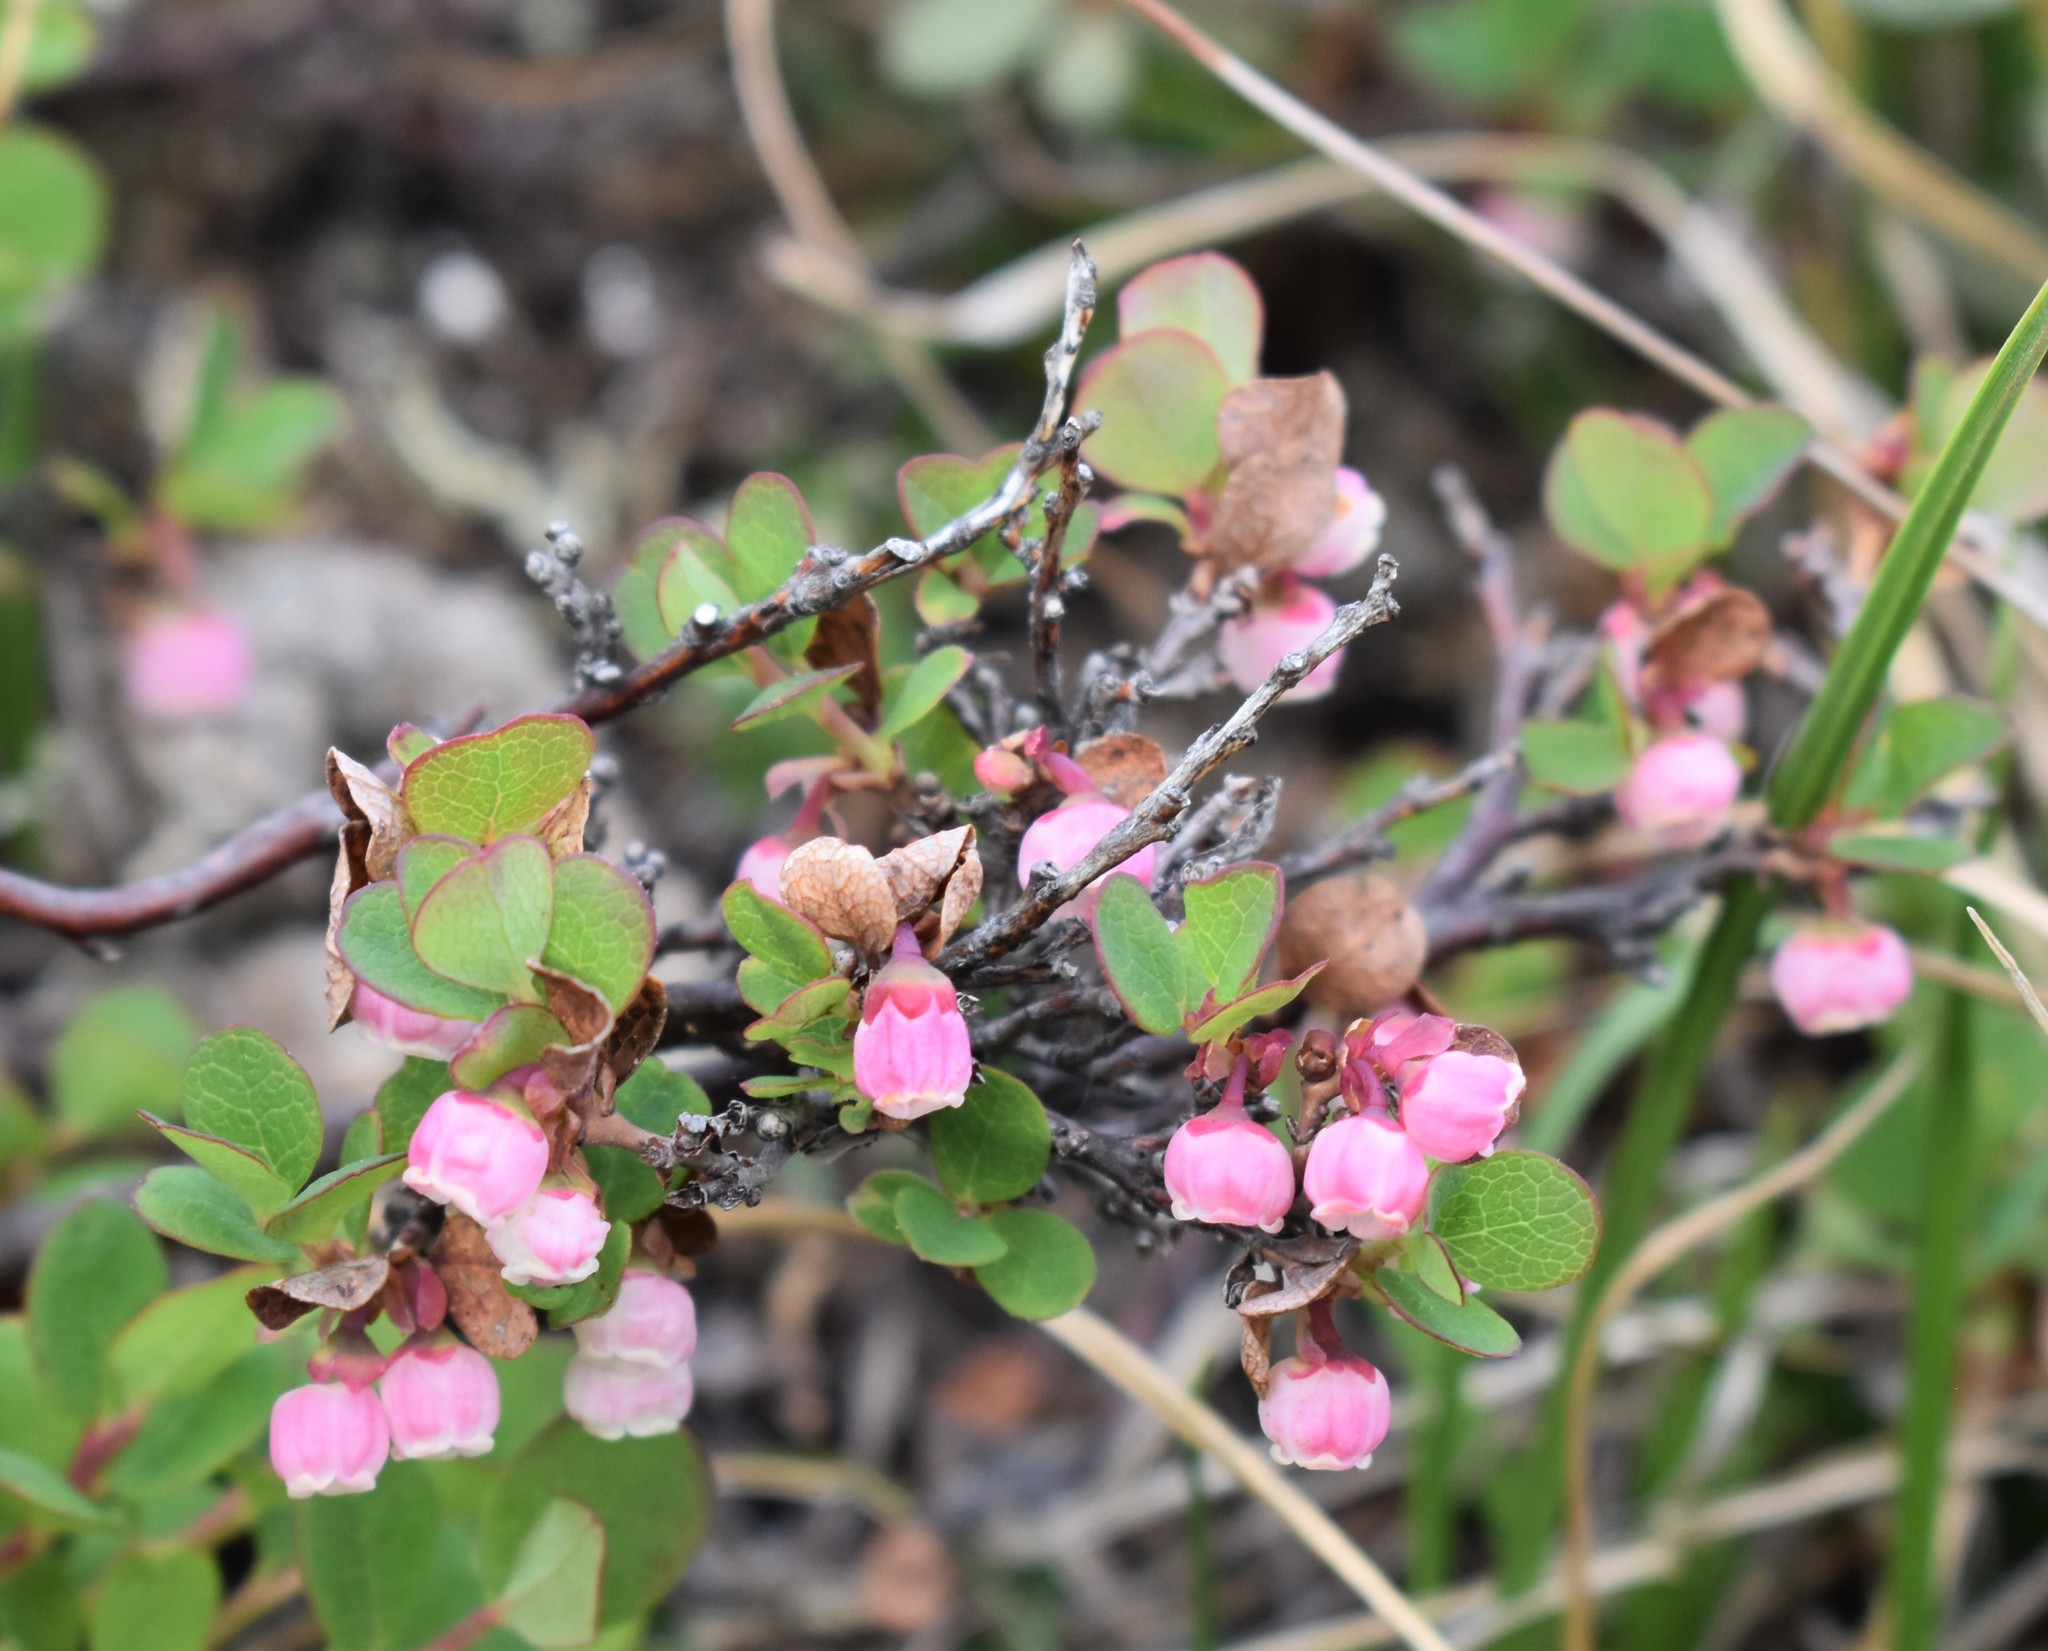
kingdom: Plantae
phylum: Tracheophyta
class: Magnoliopsida
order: Ericales
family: Ericaceae
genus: Vaccinium
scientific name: Vaccinium uliginosum
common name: Bog bilberry
